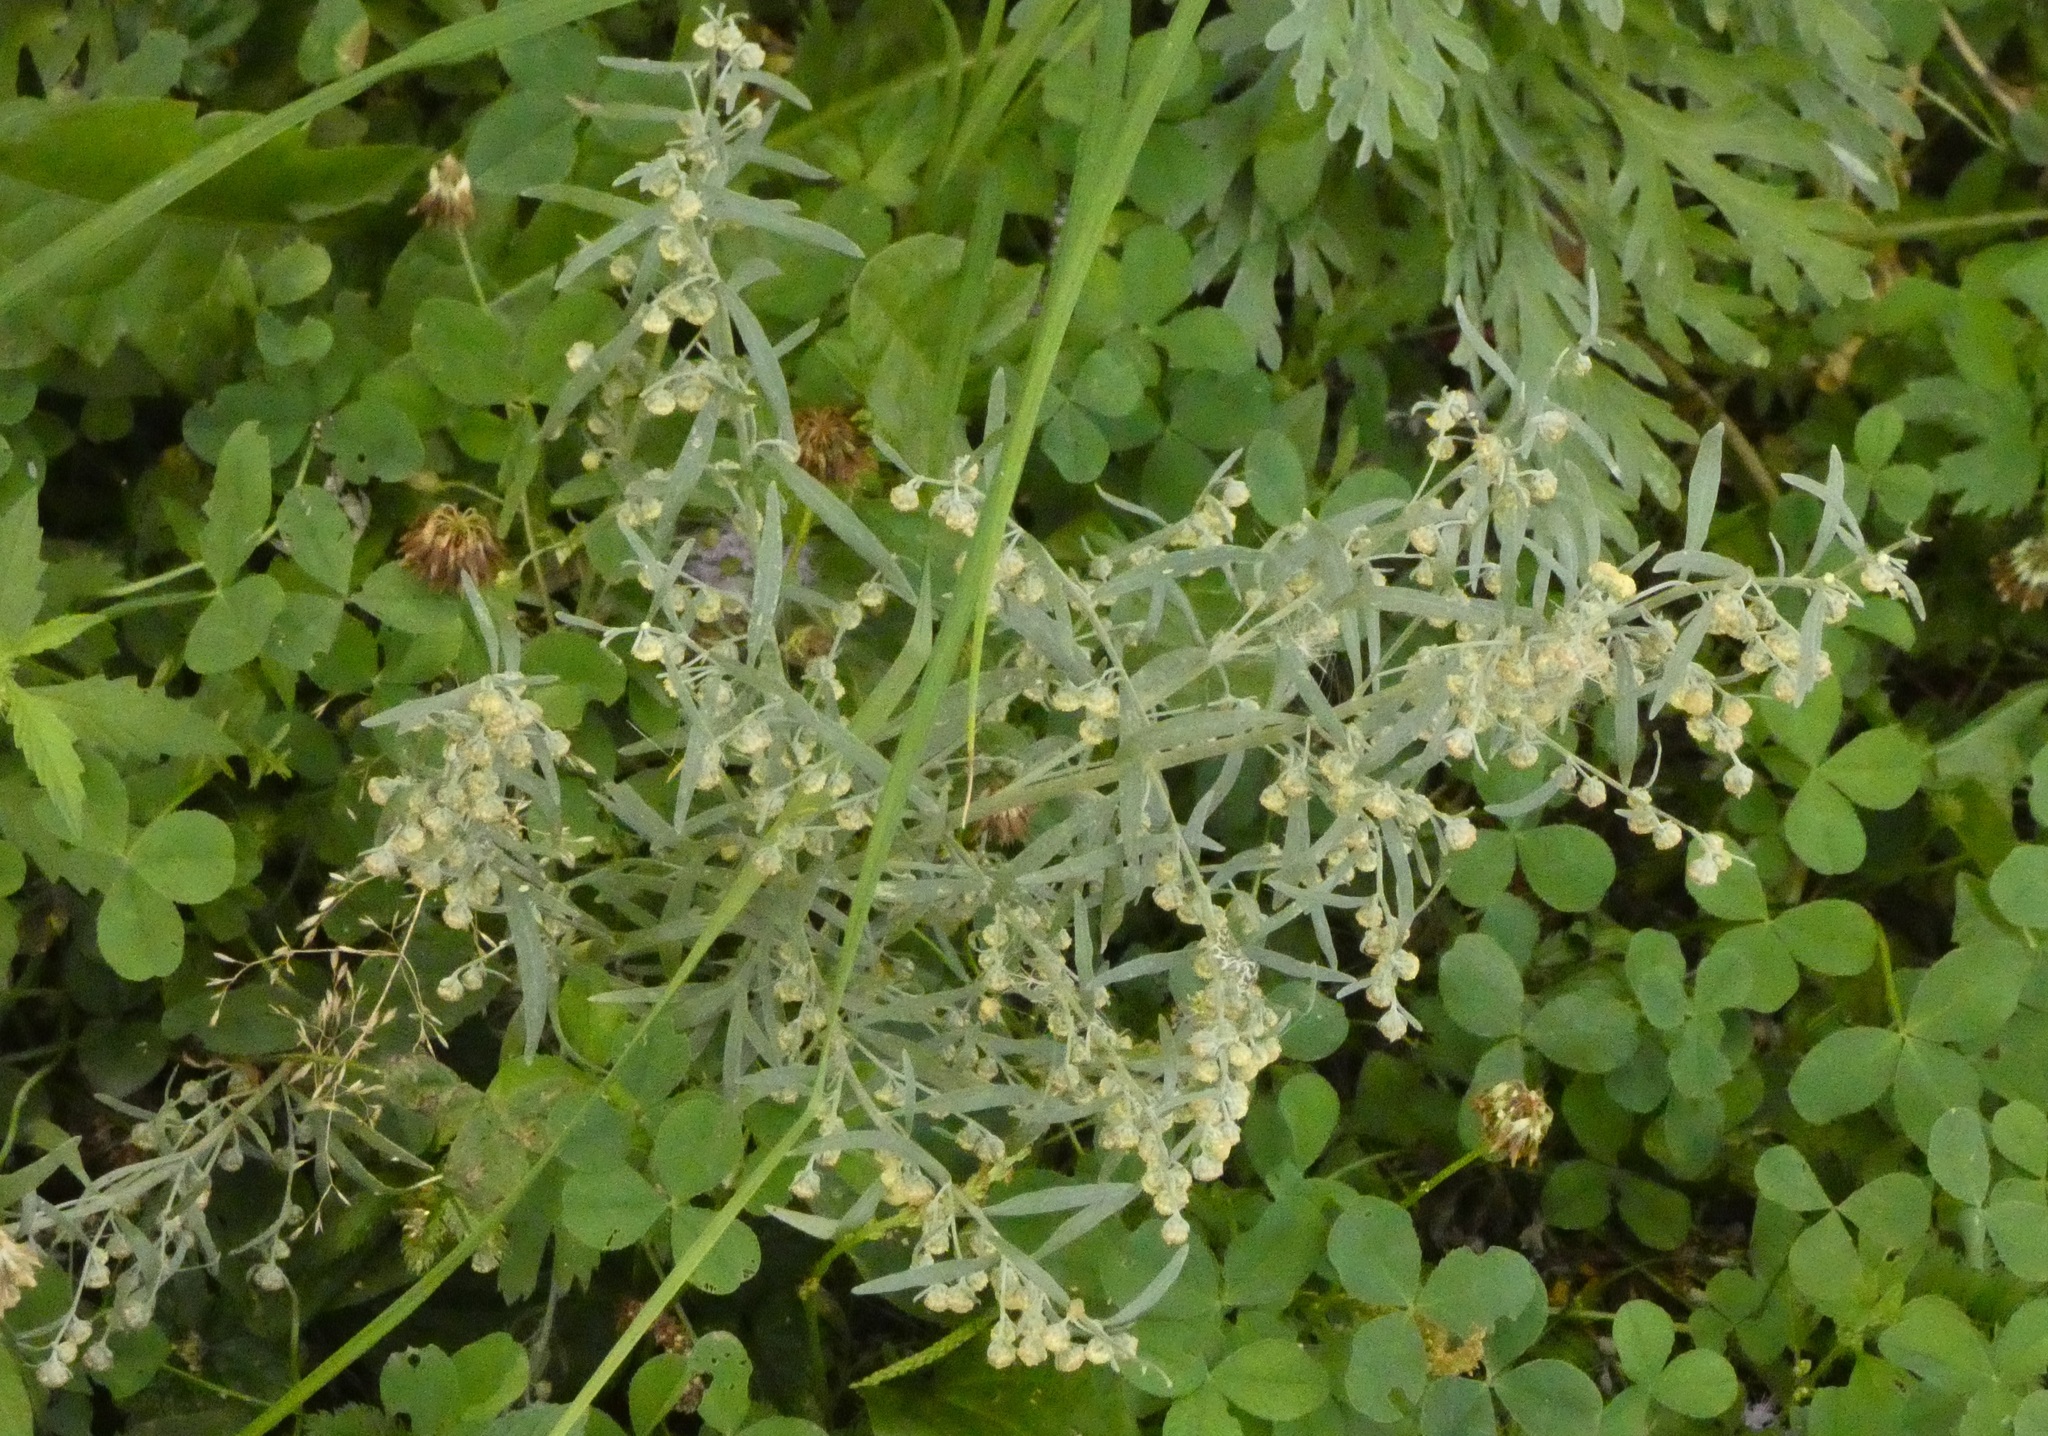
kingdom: Plantae
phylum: Tracheophyta
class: Magnoliopsida
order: Asterales
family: Asteraceae
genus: Artemisia
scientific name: Artemisia absinthium
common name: Wormwood
